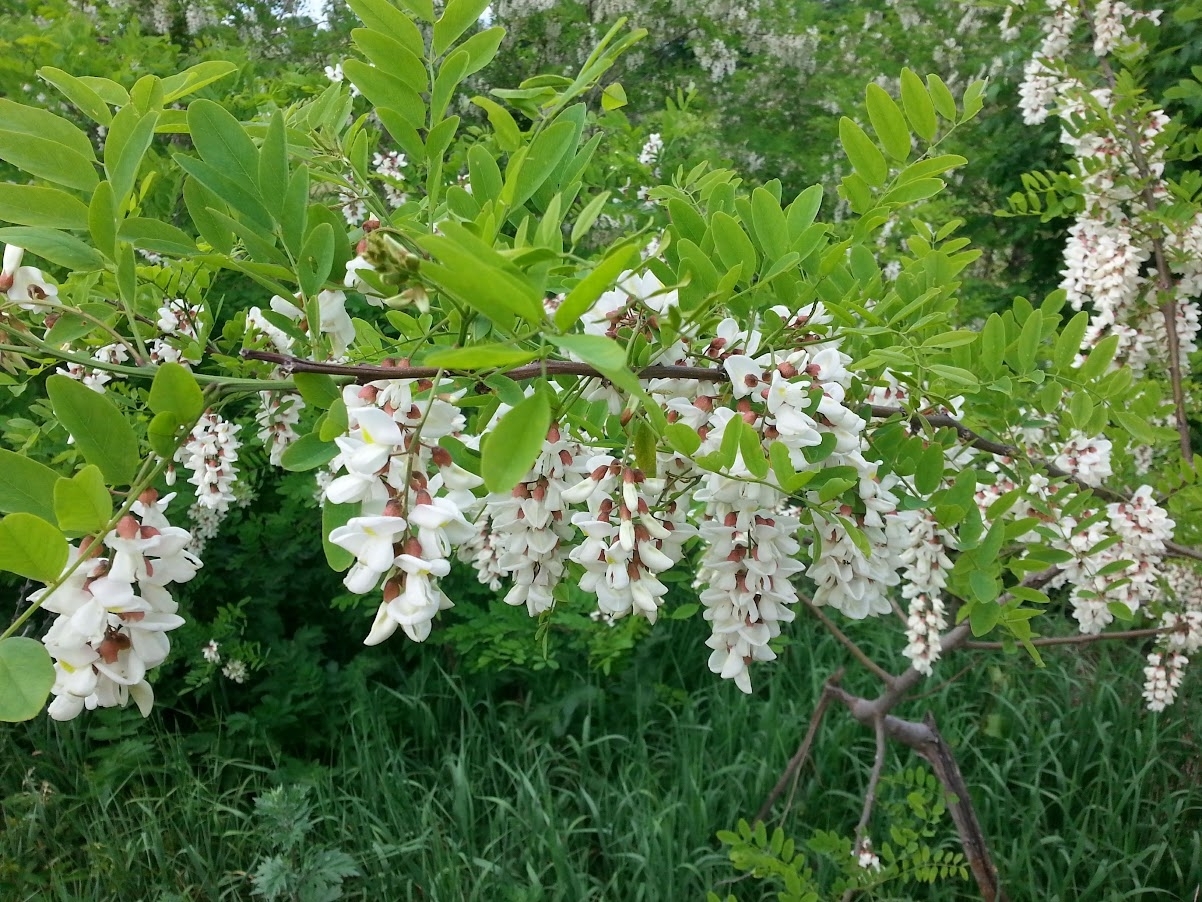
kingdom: Plantae
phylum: Tracheophyta
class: Magnoliopsida
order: Fabales
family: Fabaceae
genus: Robinia
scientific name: Robinia pseudoacacia
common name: Black locust
